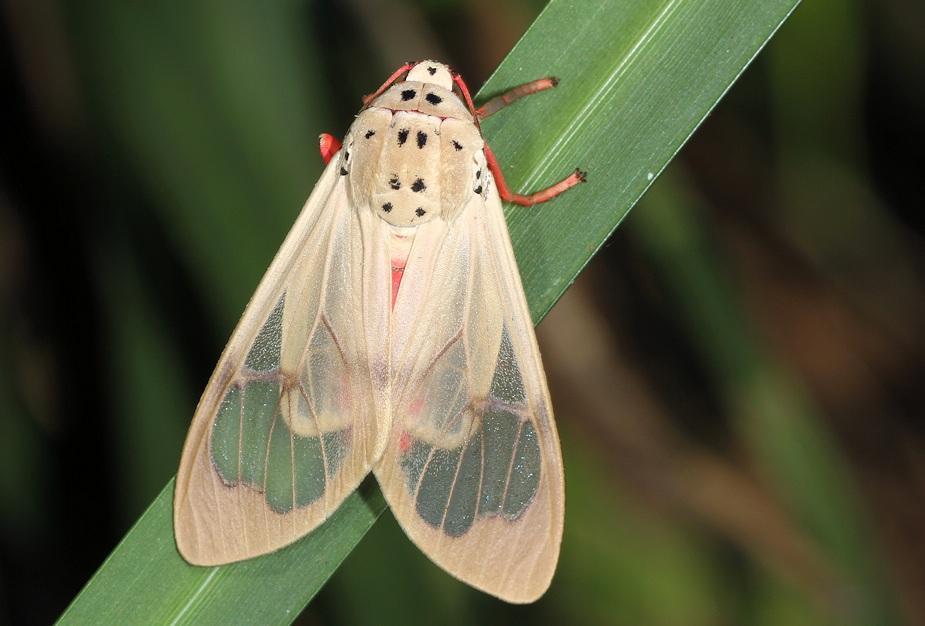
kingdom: Animalia
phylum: Arthropoda
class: Insecta
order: Lepidoptera
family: Erebidae
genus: Amerila
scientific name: Amerila vitrea
